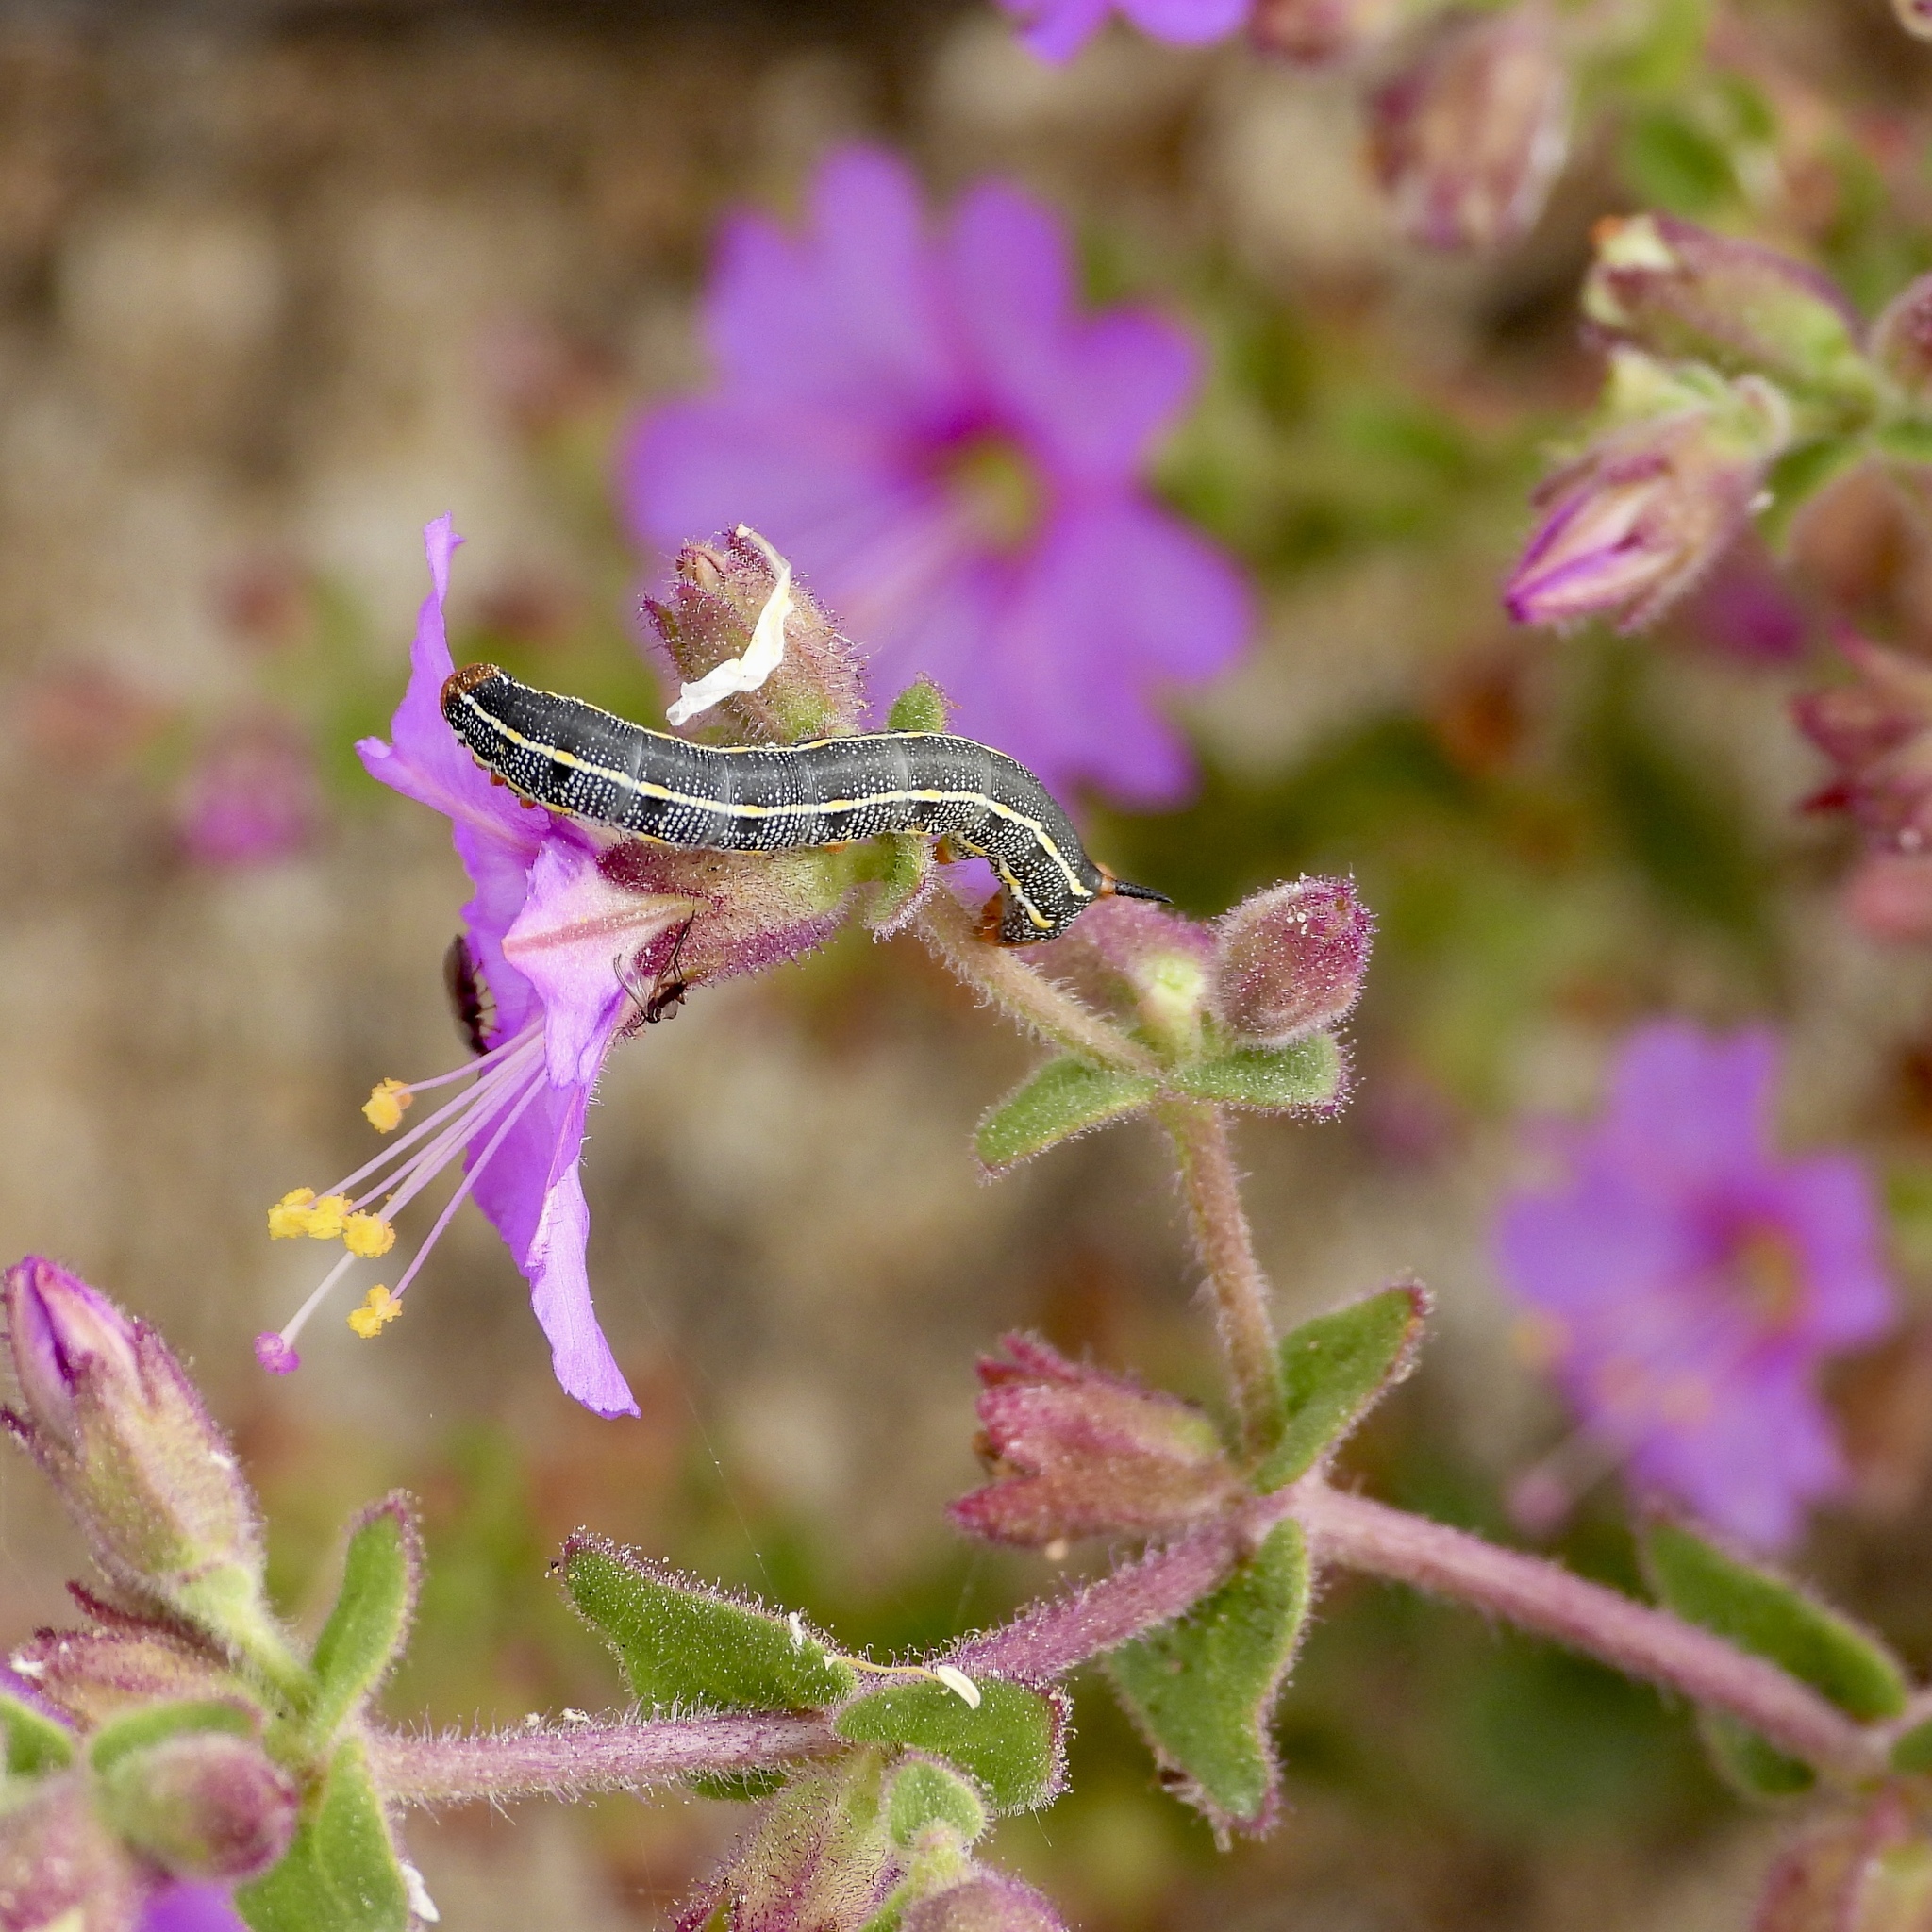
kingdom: Animalia
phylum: Arthropoda
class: Insecta
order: Lepidoptera
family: Sphingidae
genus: Hyles
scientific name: Hyles lineata
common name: White-lined sphinx
